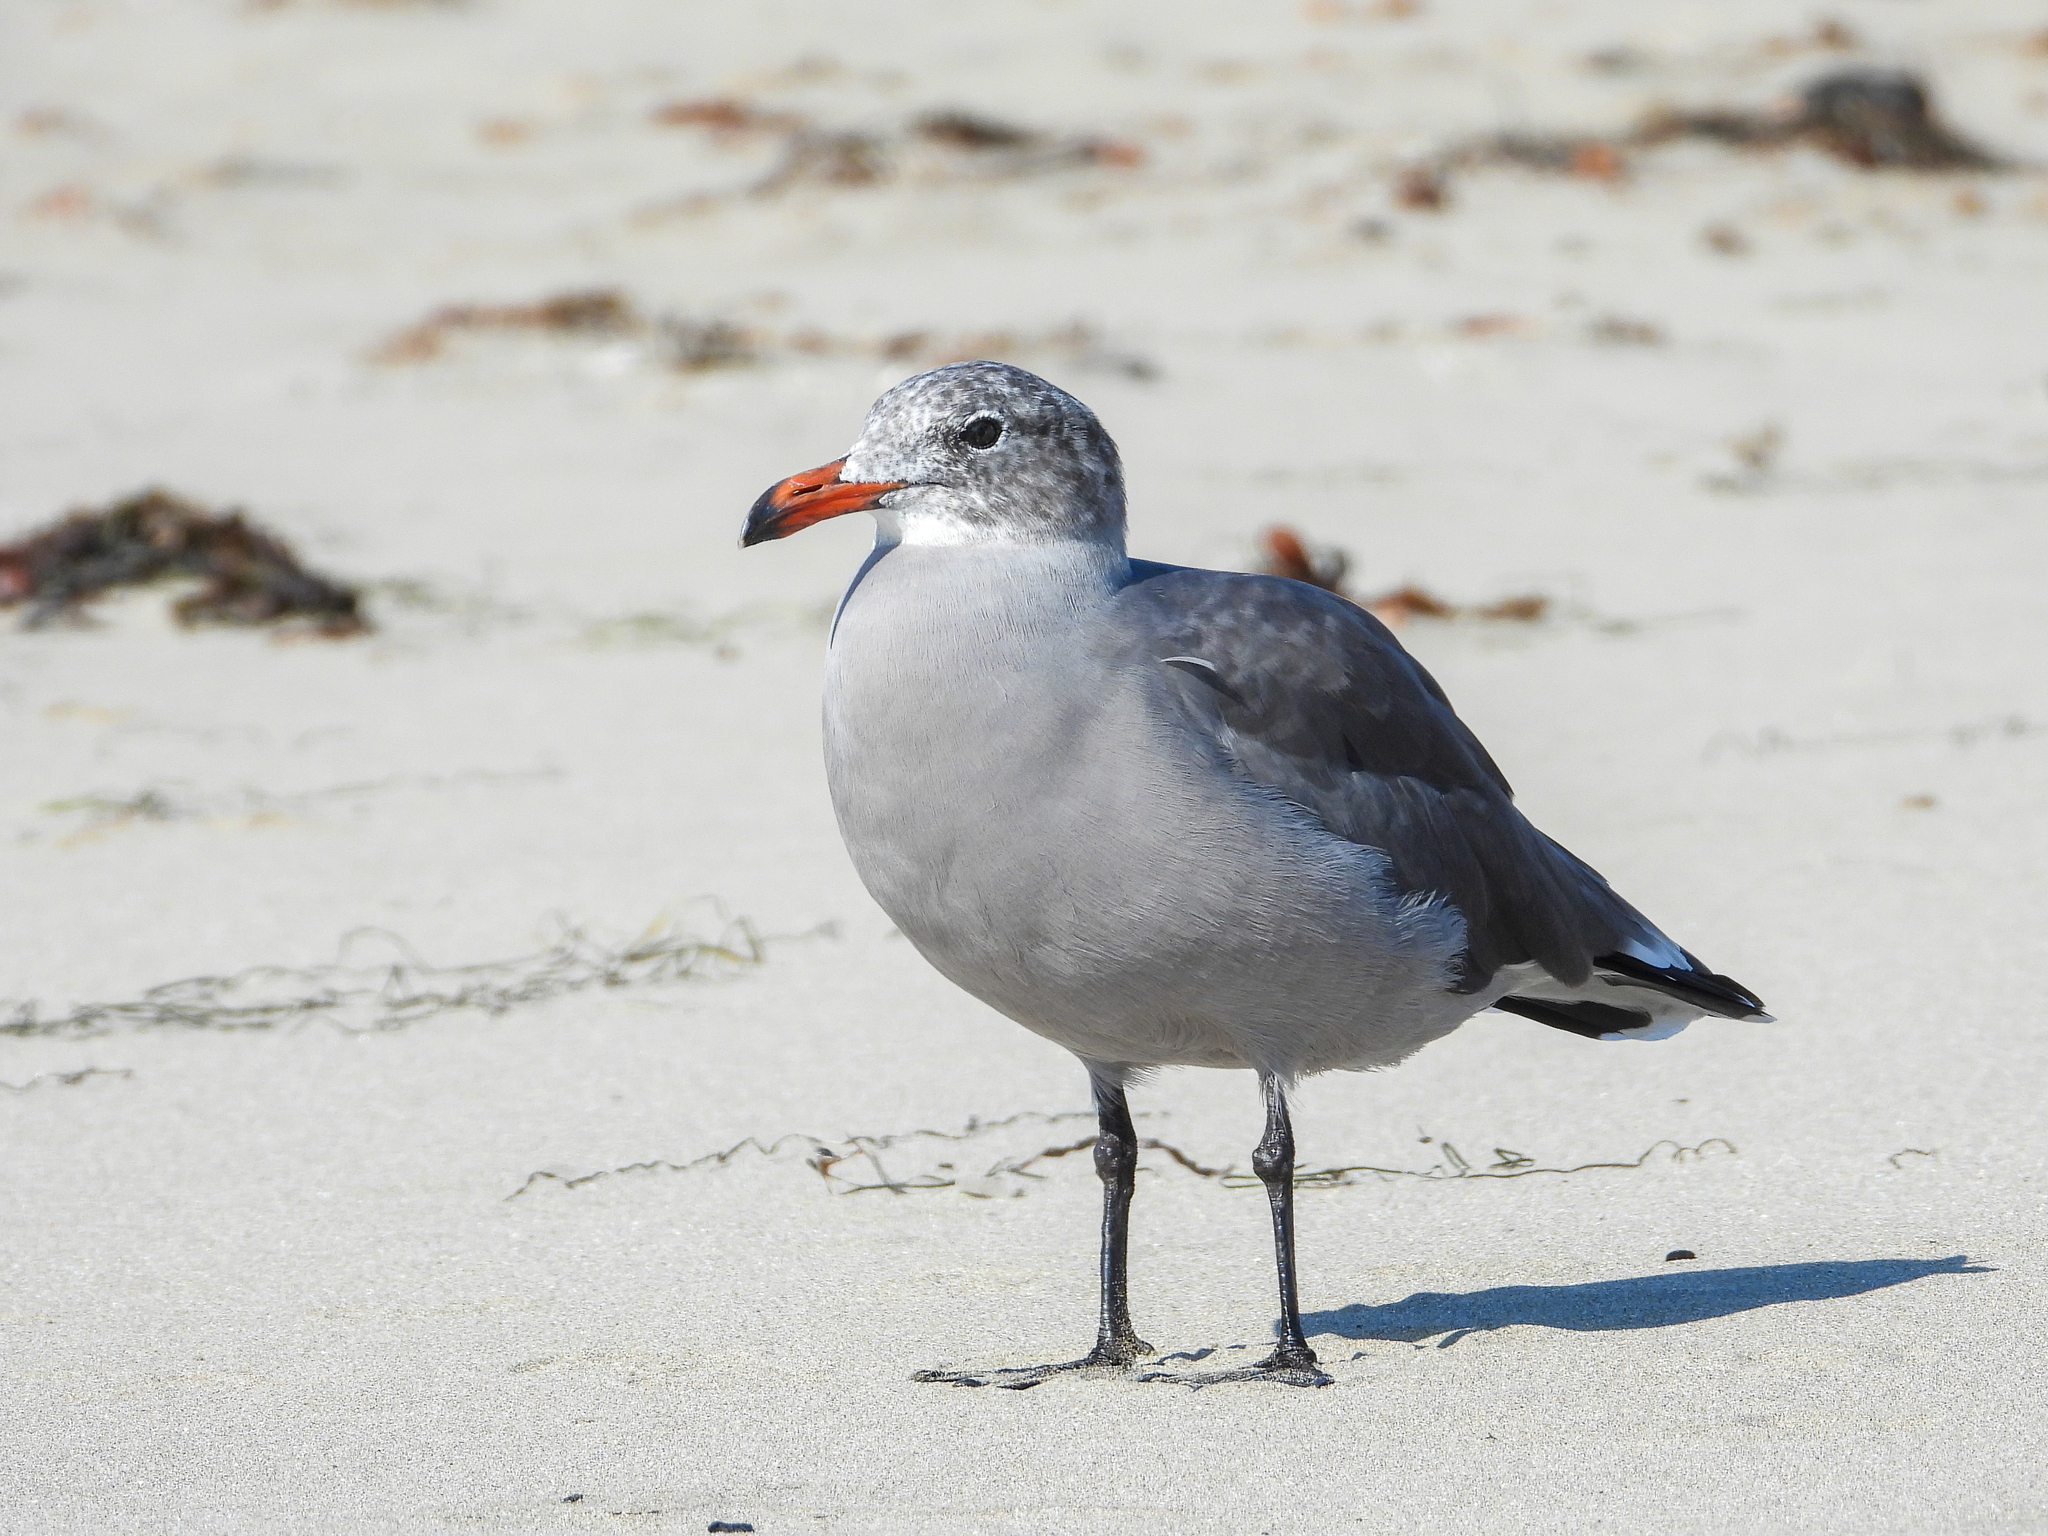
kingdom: Animalia
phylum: Chordata
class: Aves
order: Charadriiformes
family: Laridae
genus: Larus
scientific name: Larus heermanni
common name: Heermann's gull
